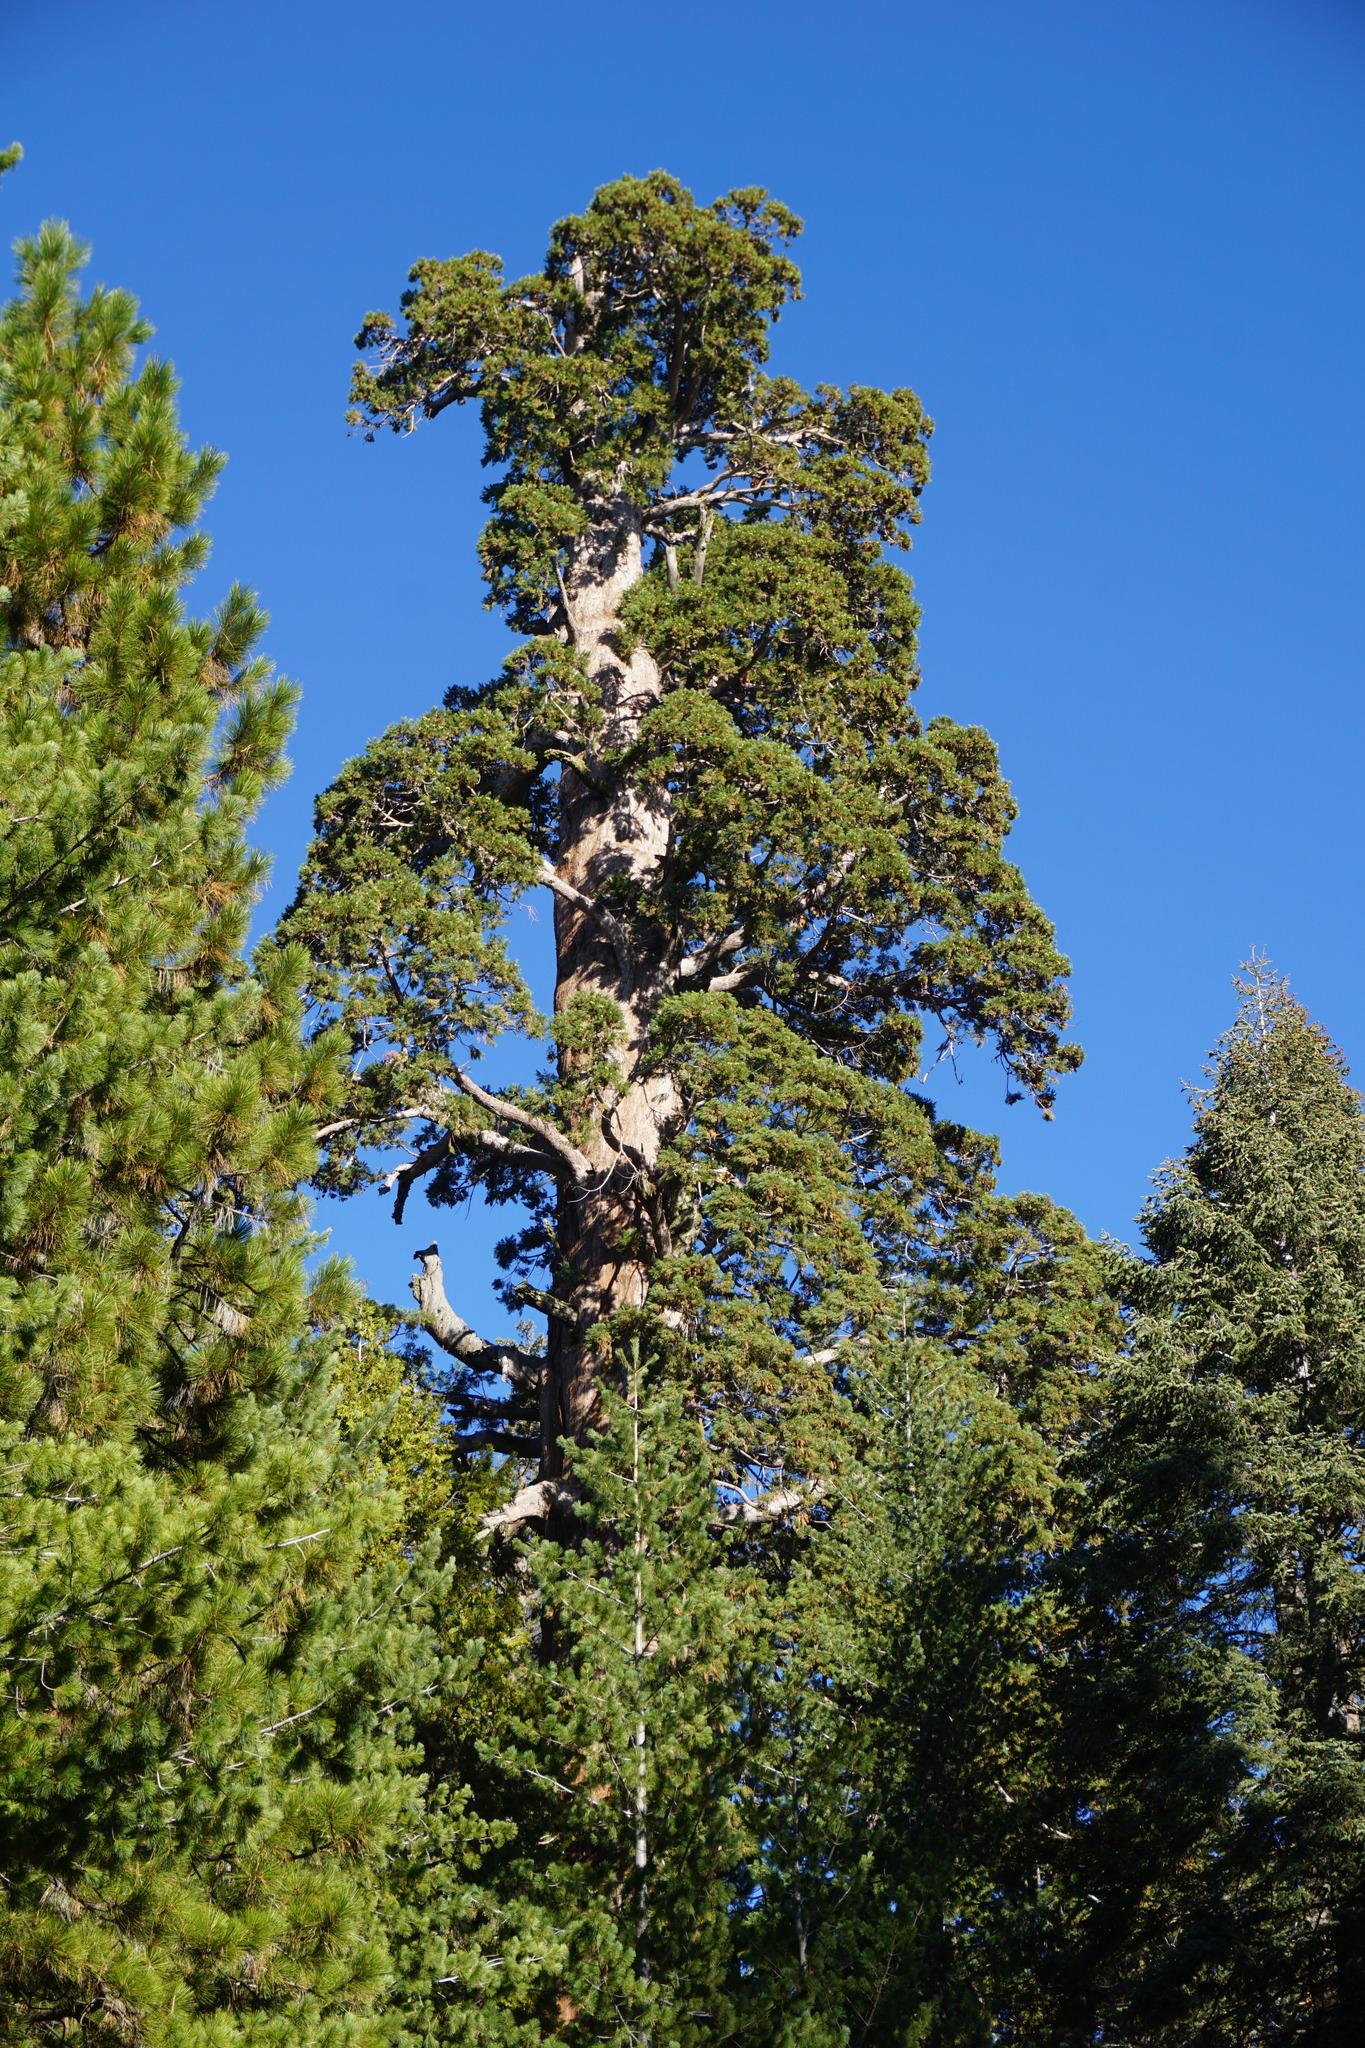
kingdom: Plantae
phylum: Tracheophyta
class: Pinopsida
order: Pinales
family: Cupressaceae
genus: Sequoiadendron
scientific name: Sequoiadendron giganteum
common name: Wellingtonia
